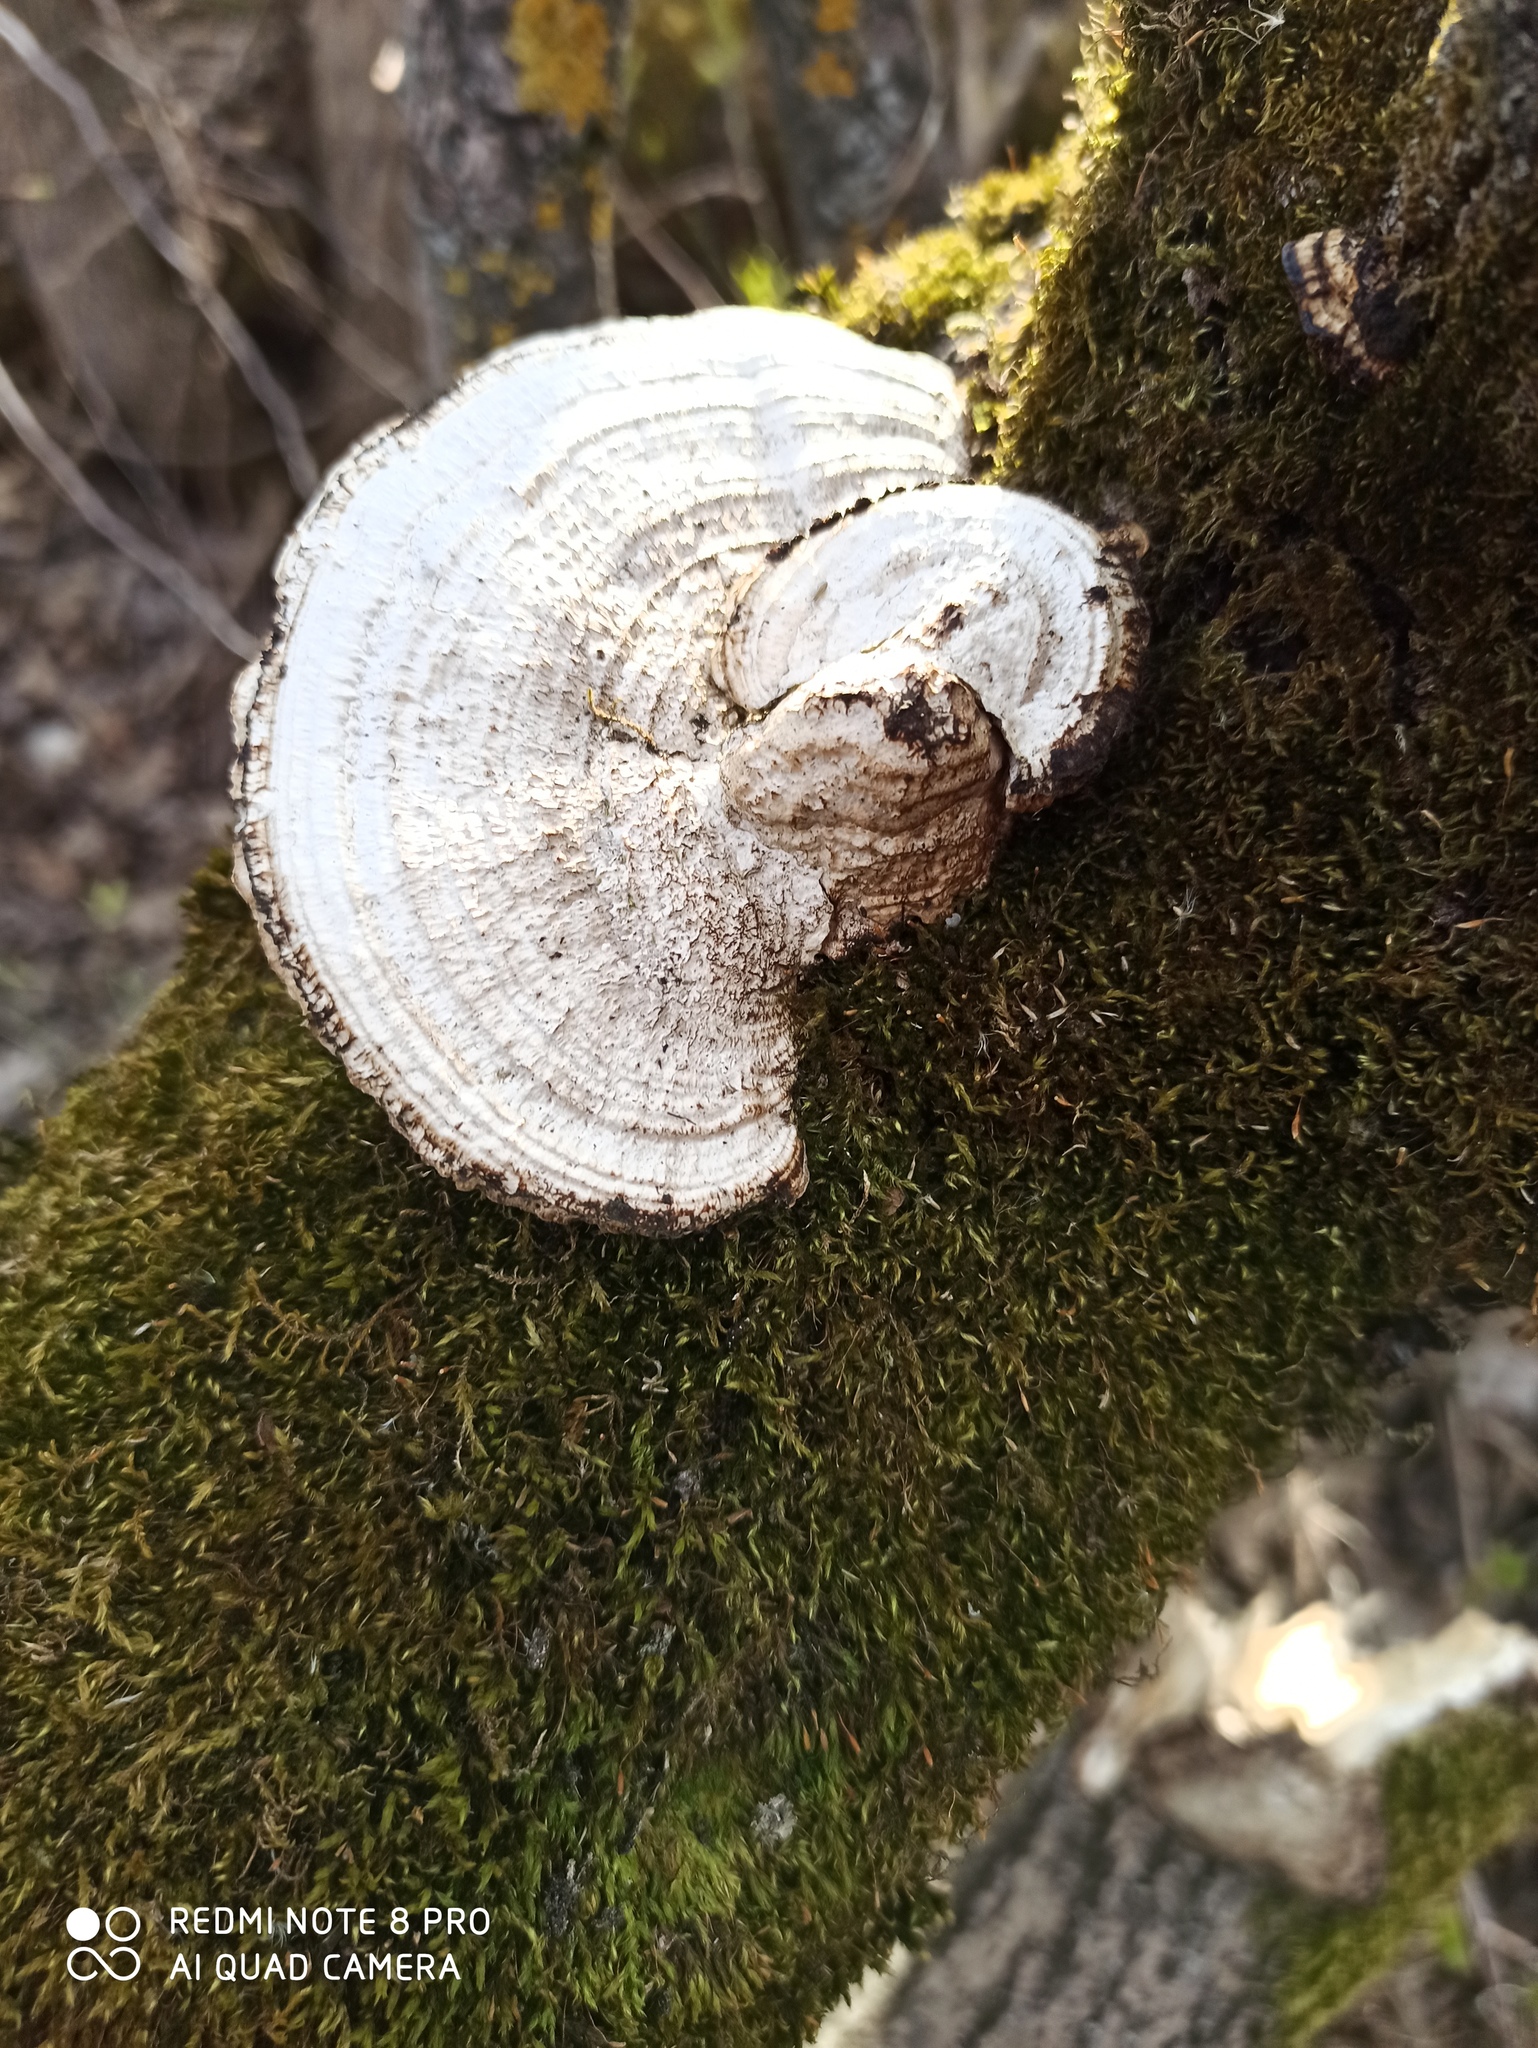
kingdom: Fungi
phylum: Basidiomycota
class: Agaricomycetes
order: Polyporales
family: Polyporaceae
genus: Daedaleopsis
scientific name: Daedaleopsis confragosa
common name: Blushing bracket
